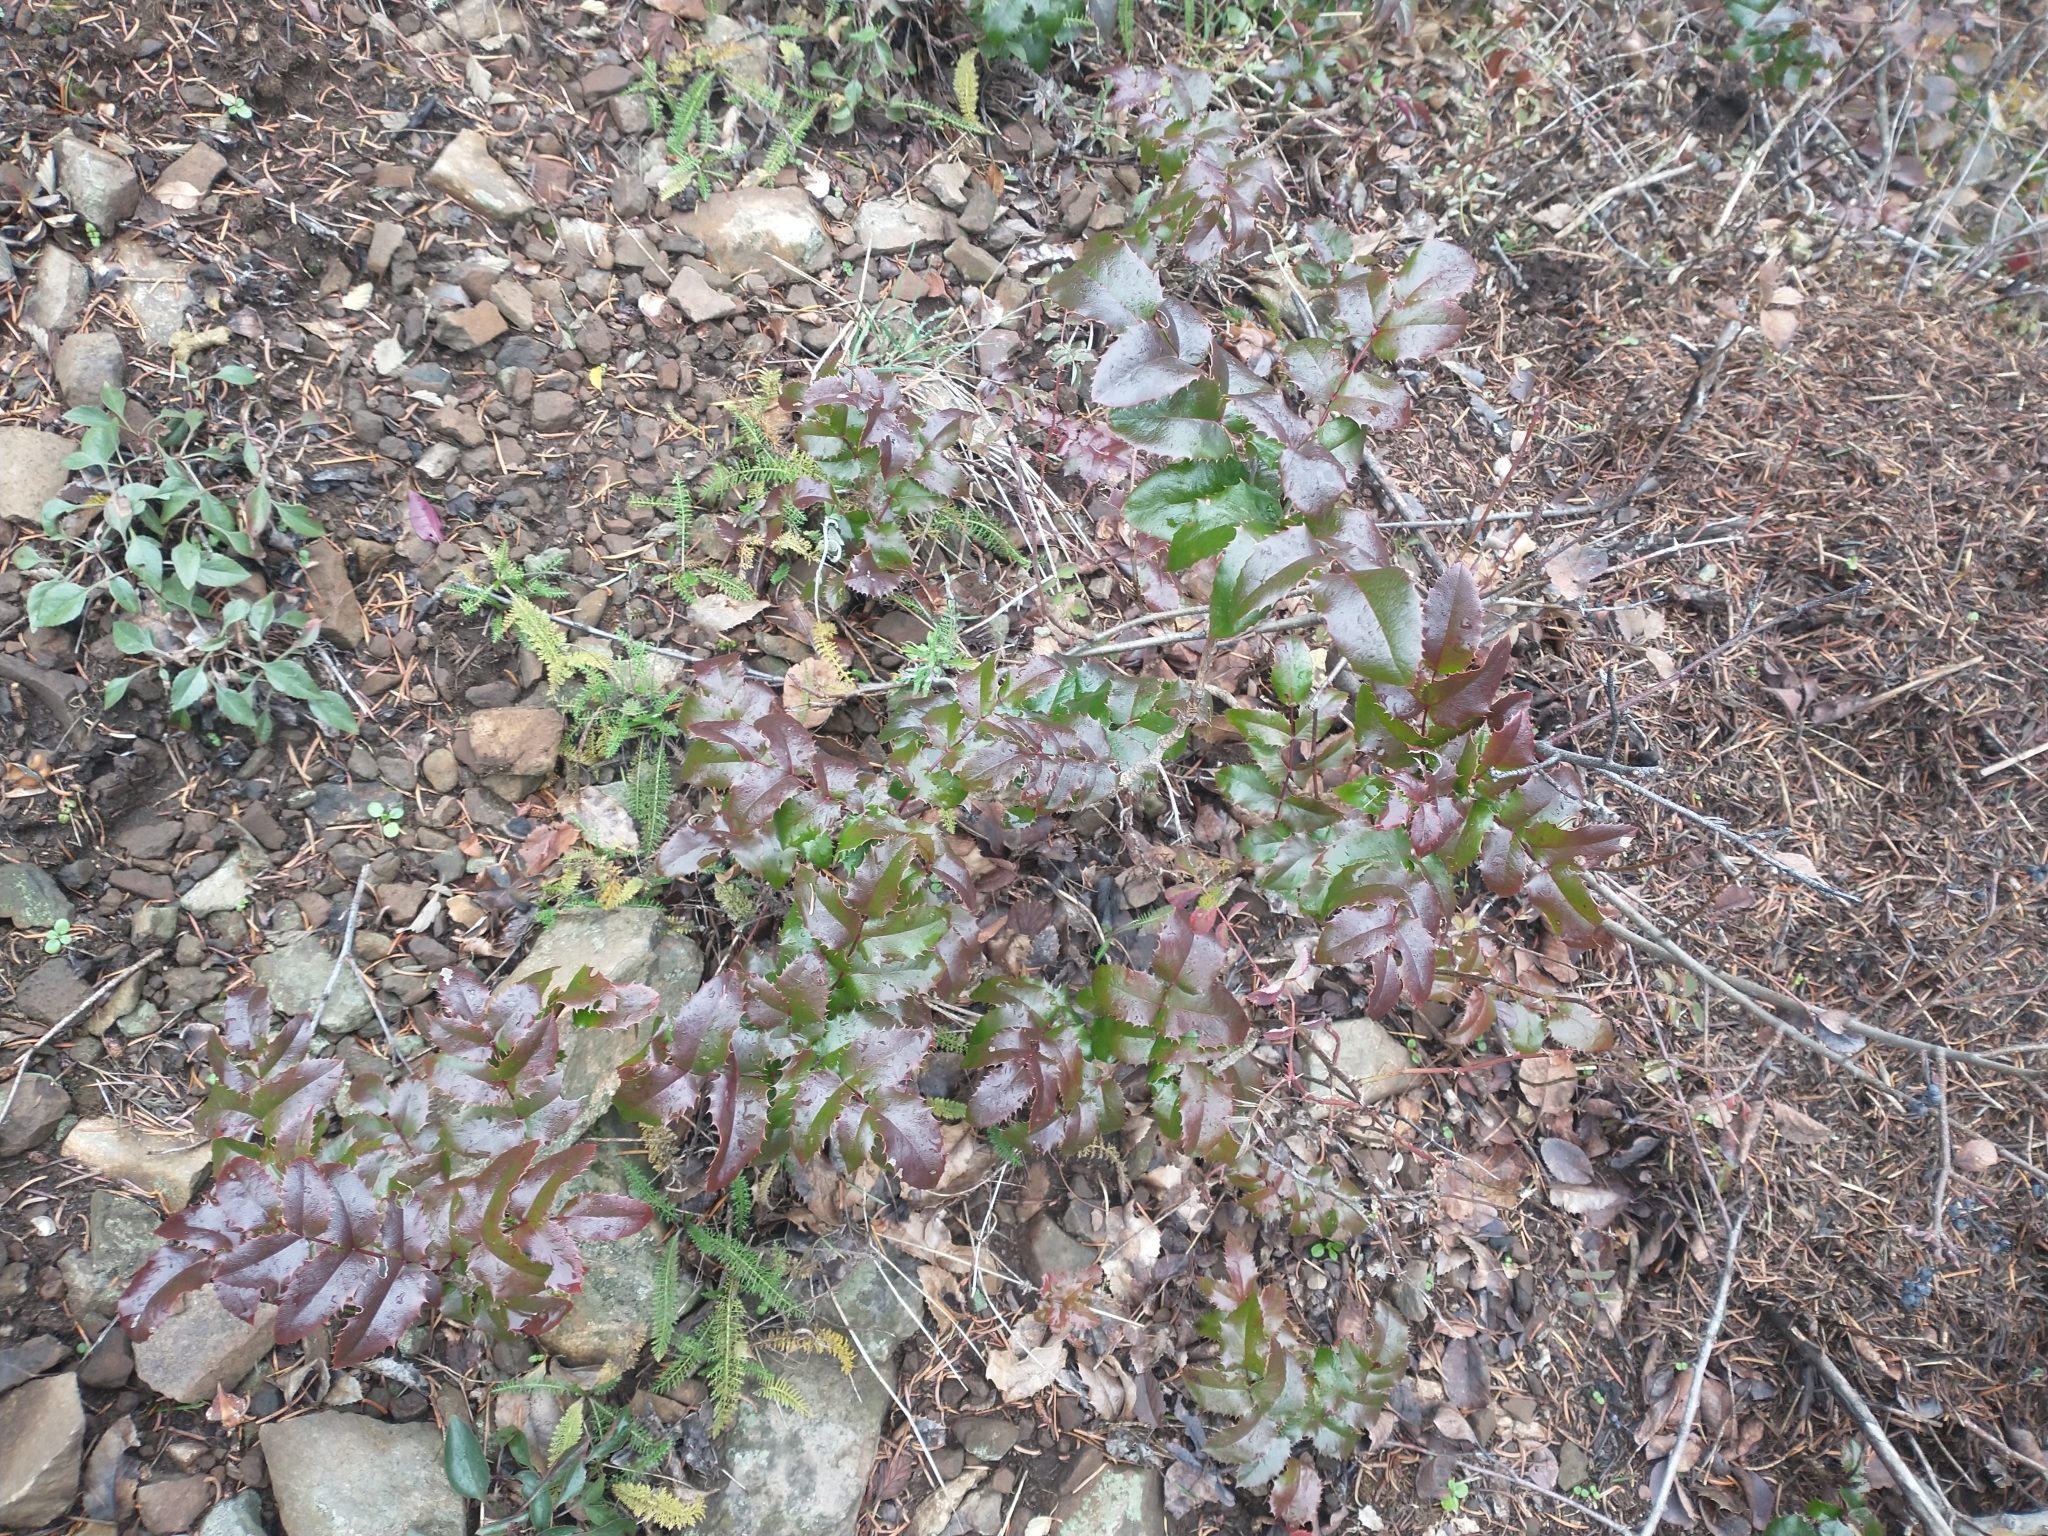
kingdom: Plantae
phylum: Tracheophyta
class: Magnoliopsida
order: Ranunculales
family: Berberidaceae
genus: Mahonia
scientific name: Mahonia aquifolium
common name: Oregon-grape
